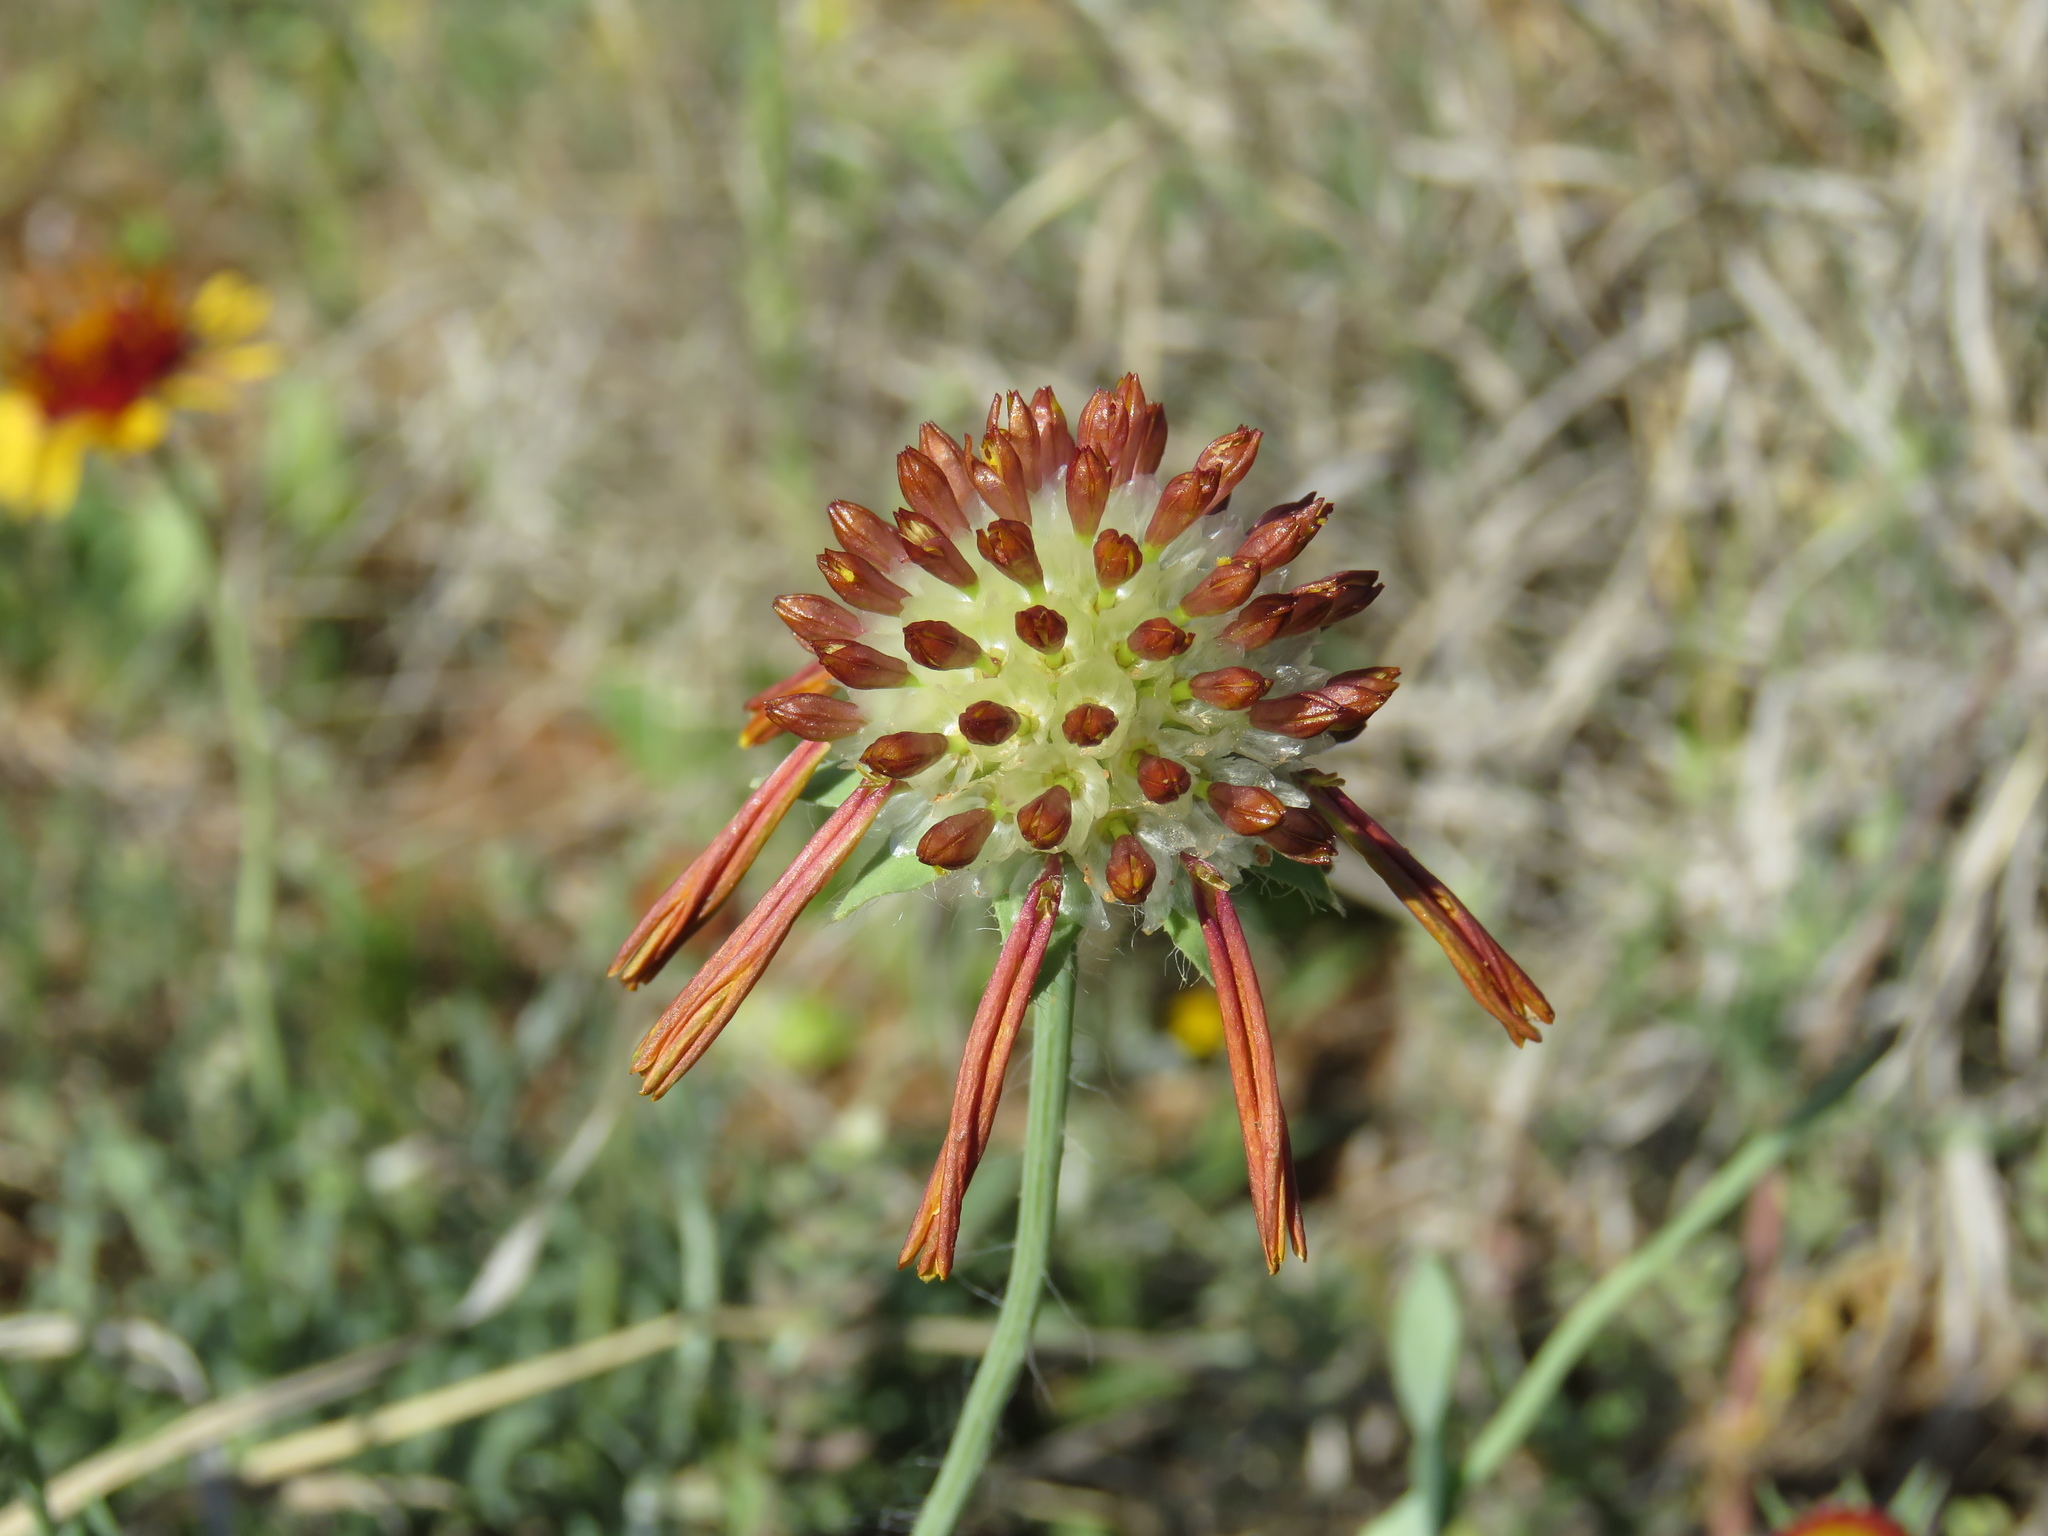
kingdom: Plantae
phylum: Tracheophyta
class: Magnoliopsida
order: Asterales
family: Asteraceae
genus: Amblyolepis
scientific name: Amblyolepis setigera
